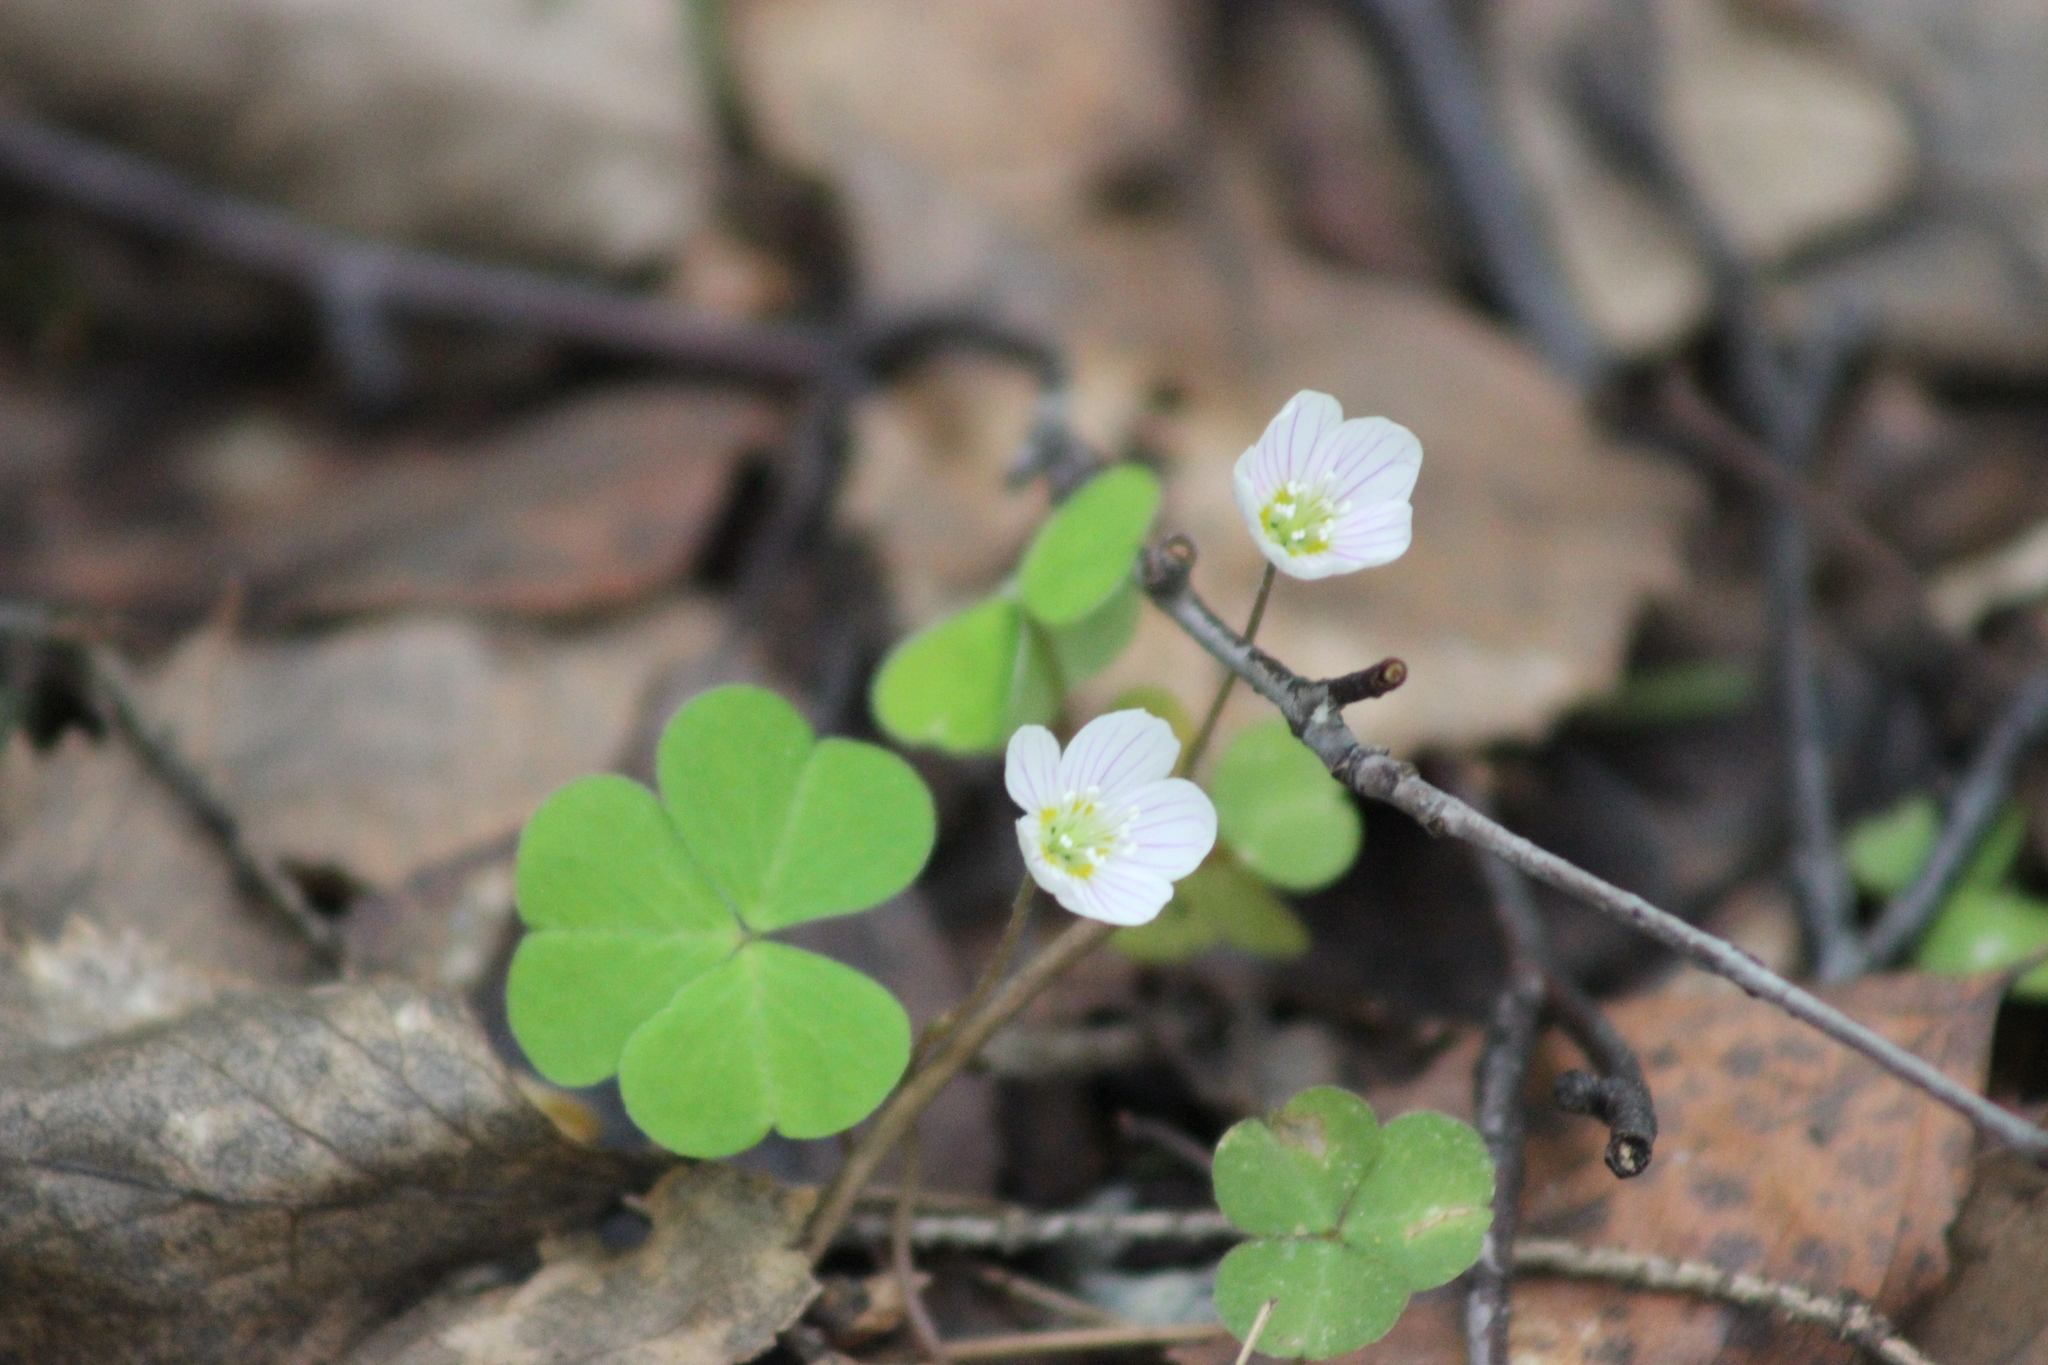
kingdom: Plantae
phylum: Tracheophyta
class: Magnoliopsida
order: Oxalidales
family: Oxalidaceae
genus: Oxalis
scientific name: Oxalis acetosella
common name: Wood-sorrel
